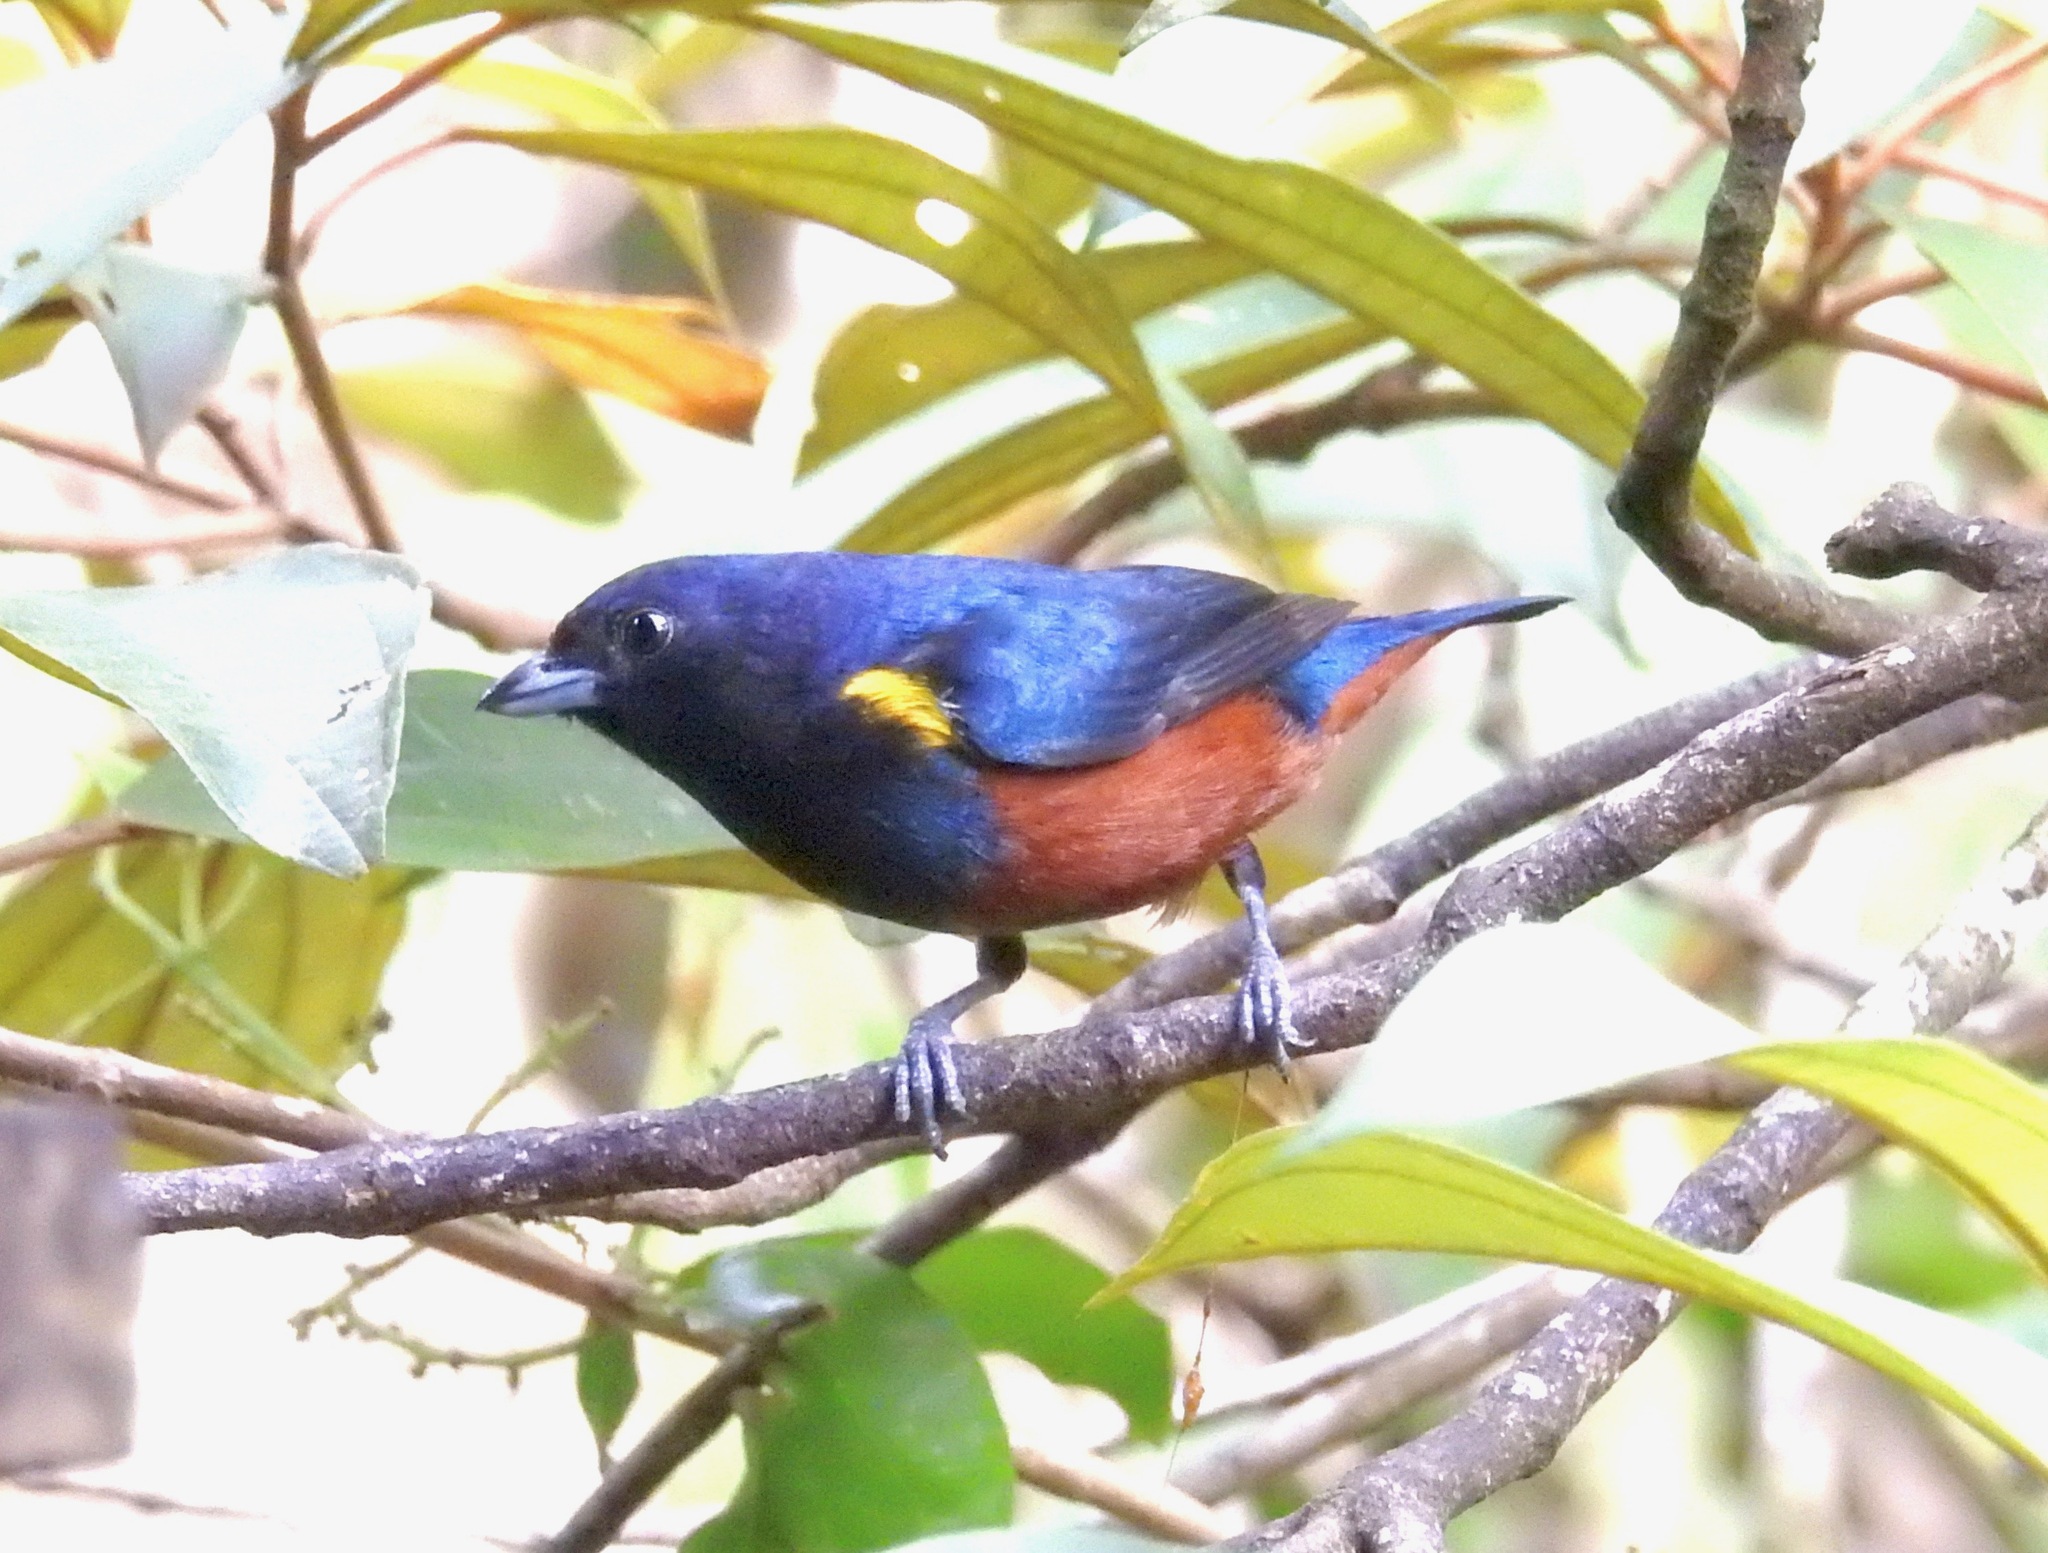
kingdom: Animalia
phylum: Chordata
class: Aves
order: Passeriformes
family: Fringillidae
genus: Euphonia
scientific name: Euphonia pectoralis
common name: Chestnut-bellied euphonia
